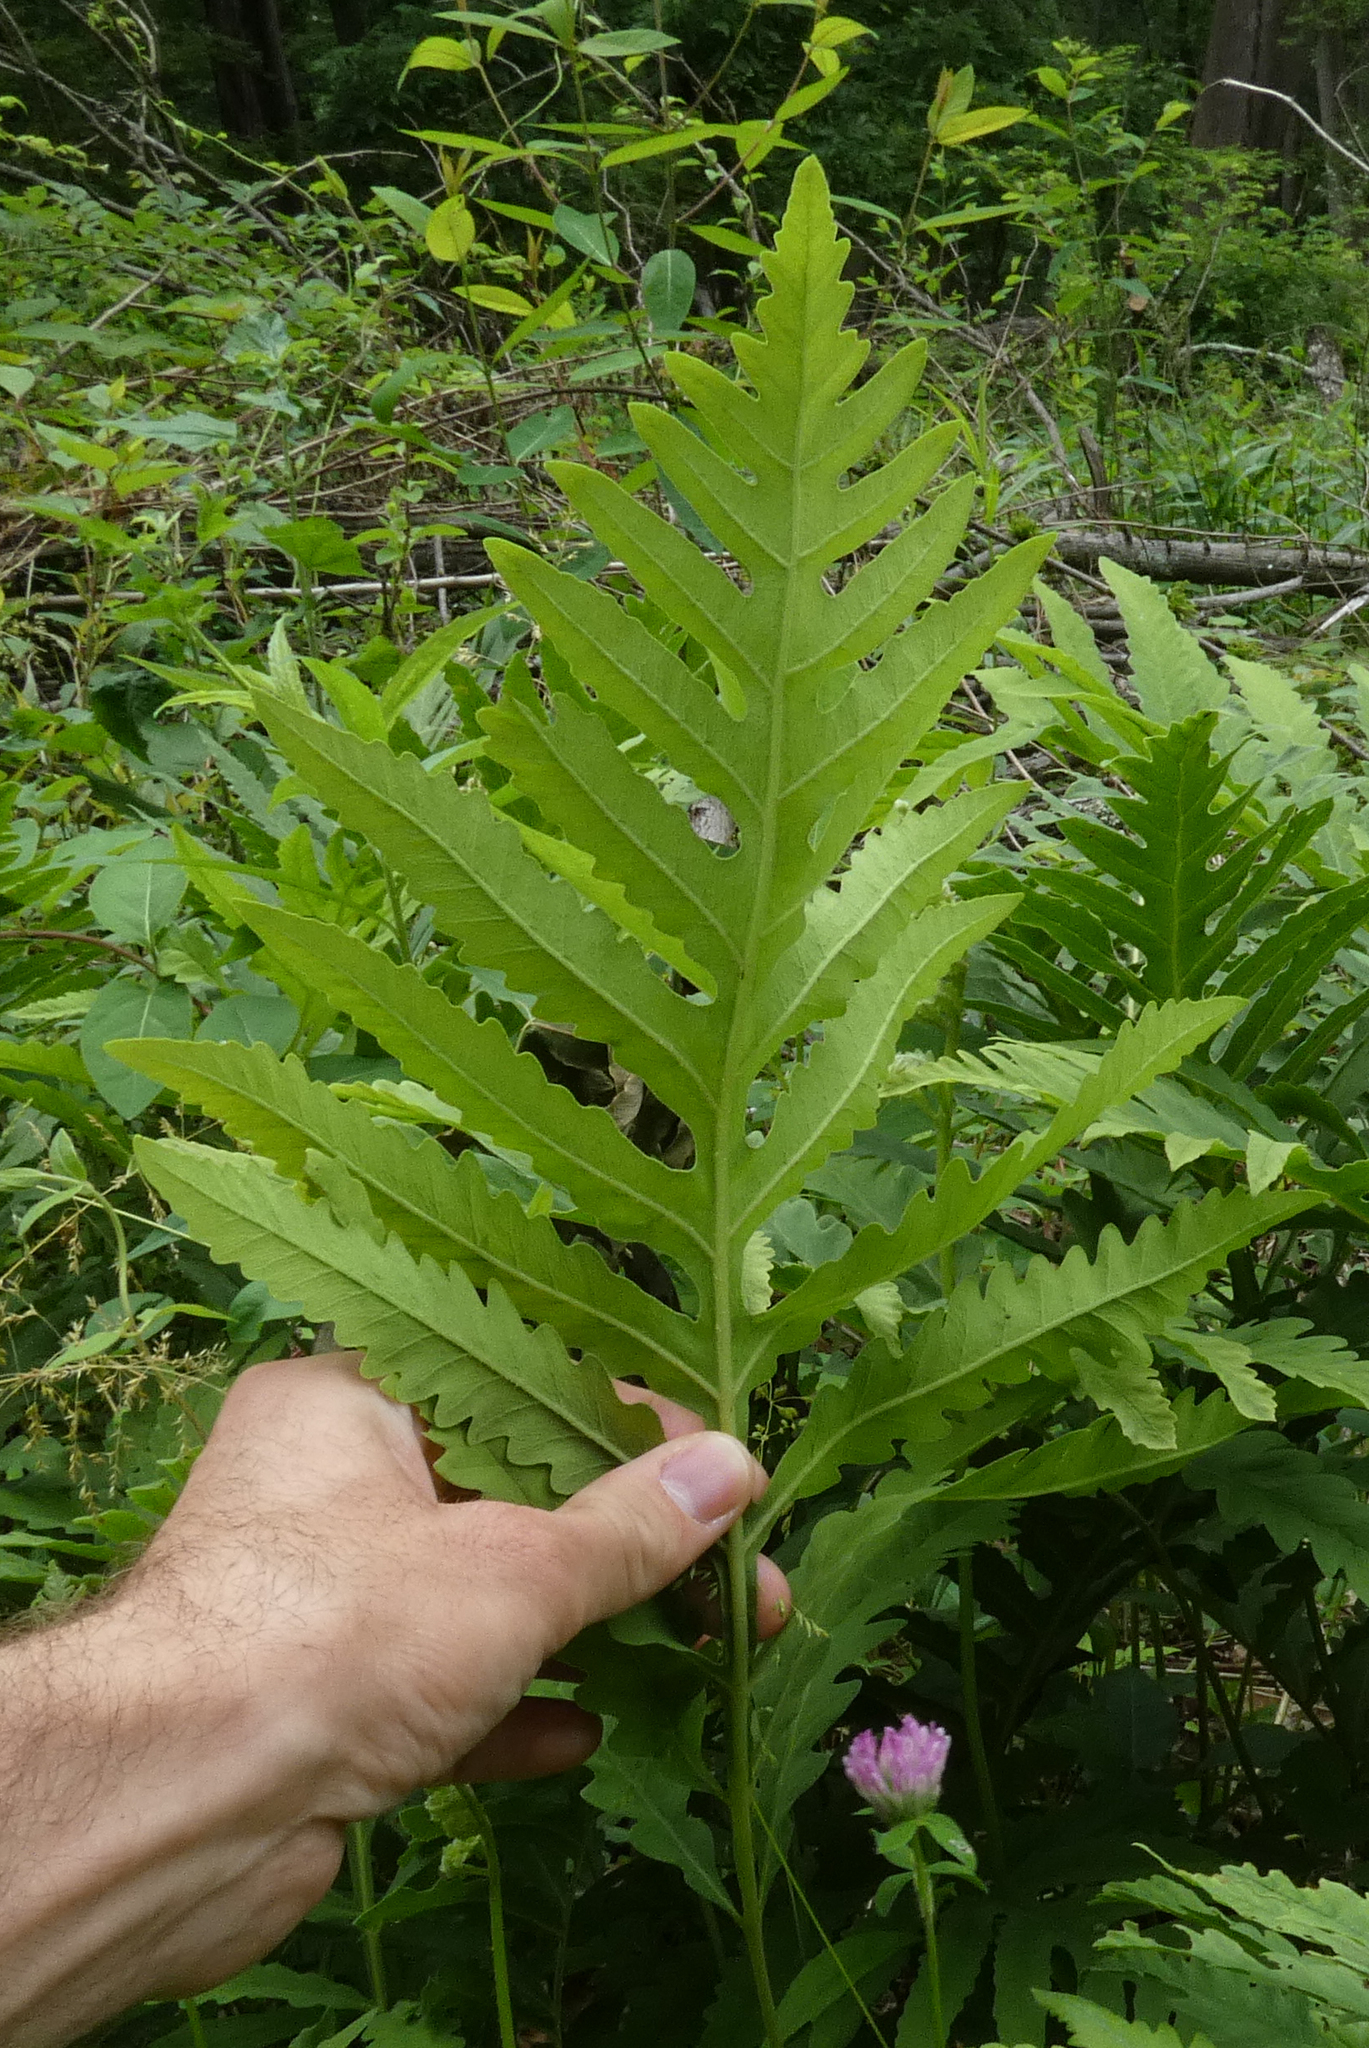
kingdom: Plantae
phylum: Tracheophyta
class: Polypodiopsida
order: Polypodiales
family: Onocleaceae
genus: Onoclea
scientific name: Onoclea sensibilis
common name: Sensitive fern
